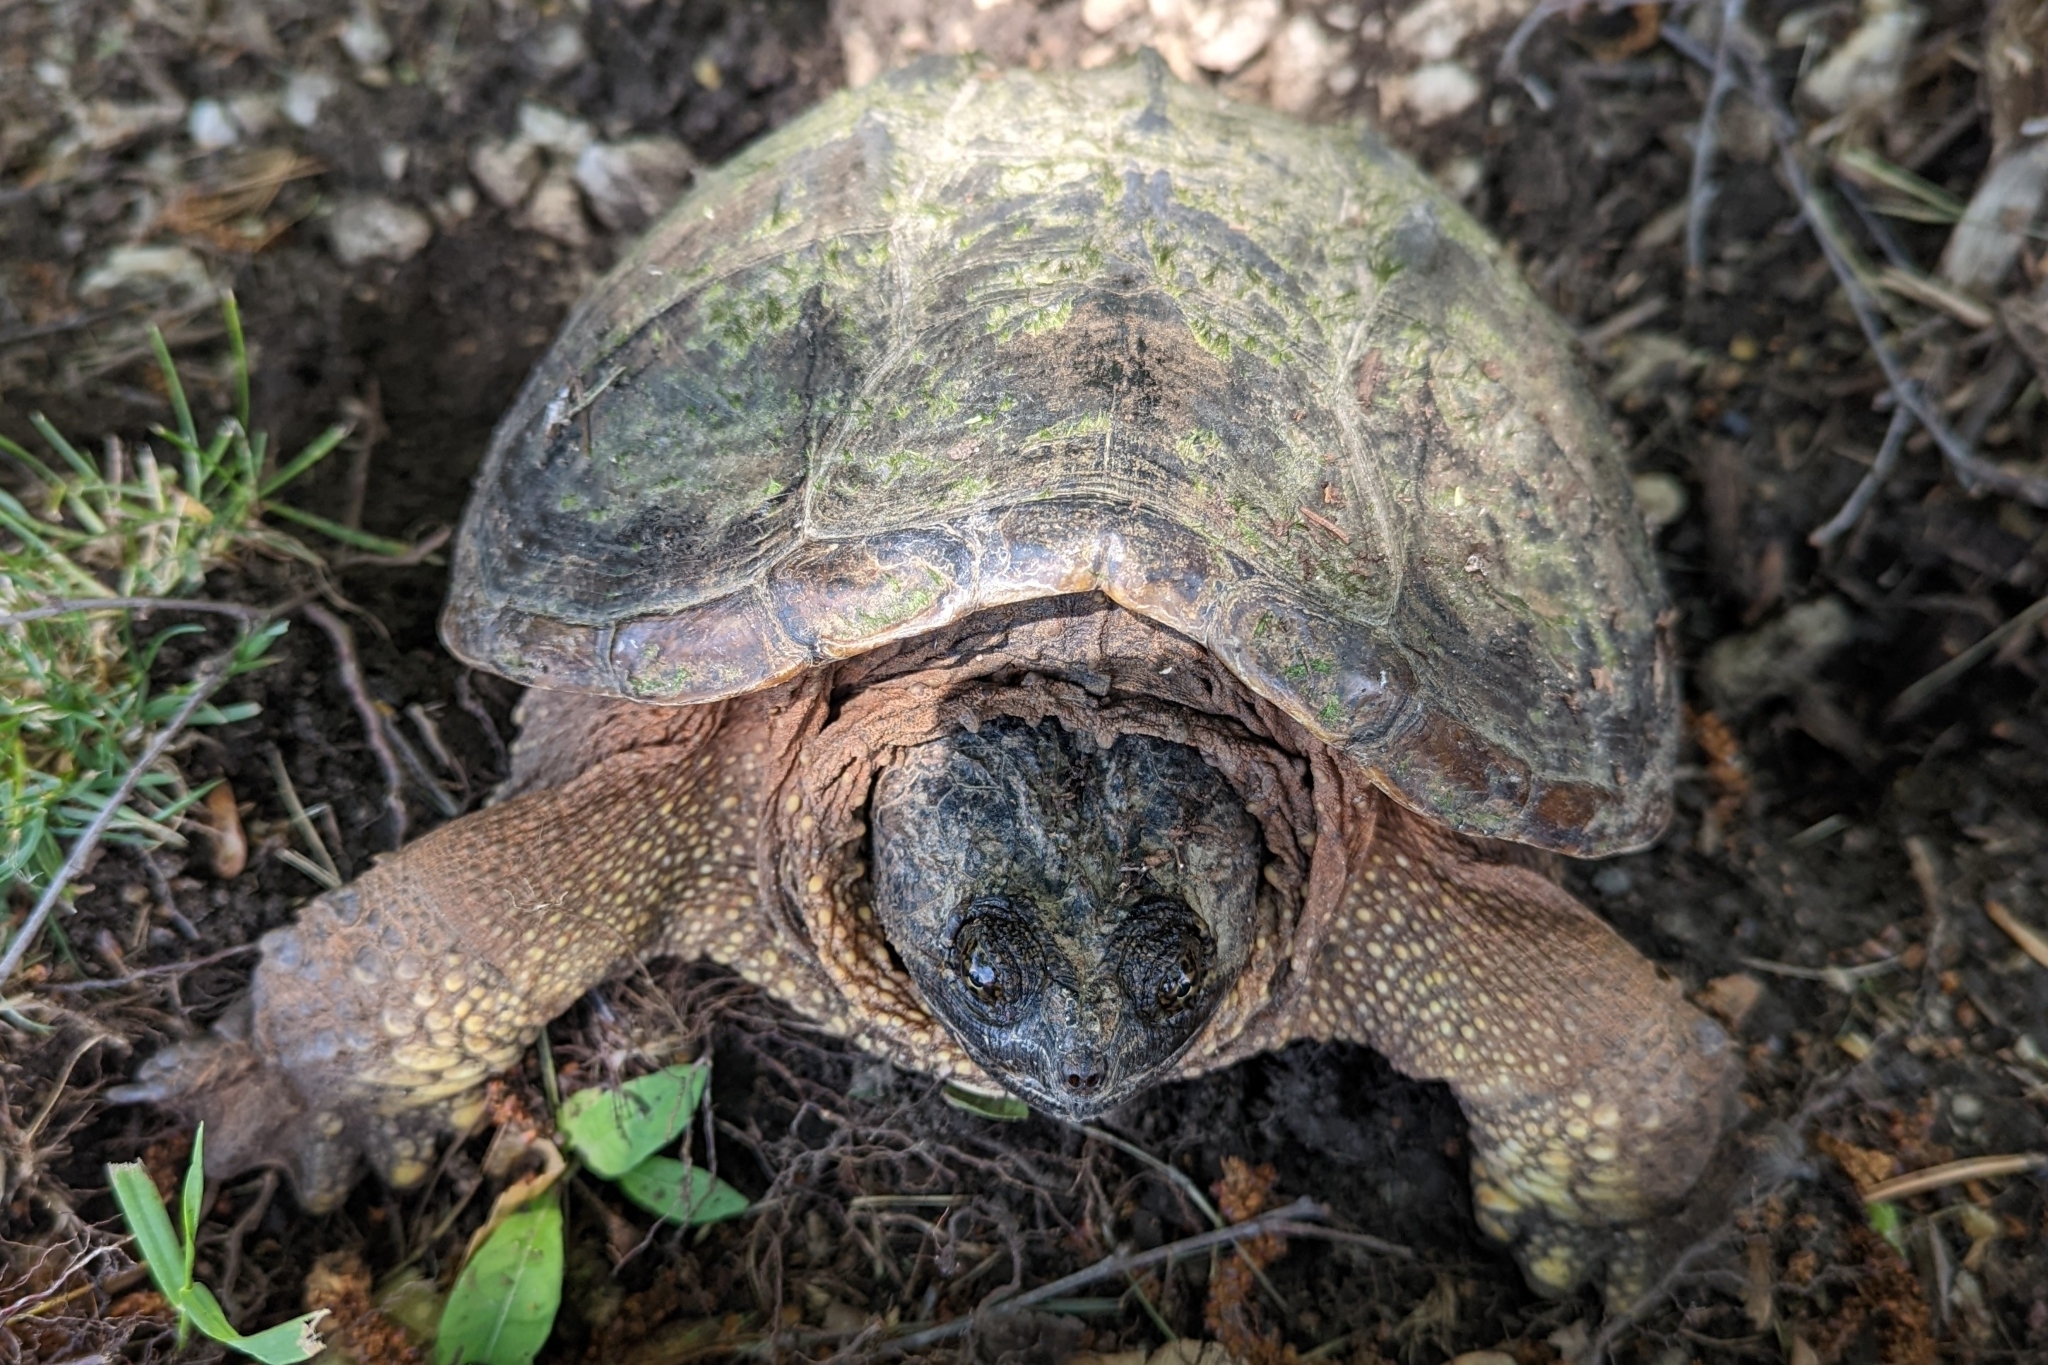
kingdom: Animalia
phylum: Chordata
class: Testudines
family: Chelydridae
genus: Chelydra
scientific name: Chelydra serpentina
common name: Common snapping turtle
